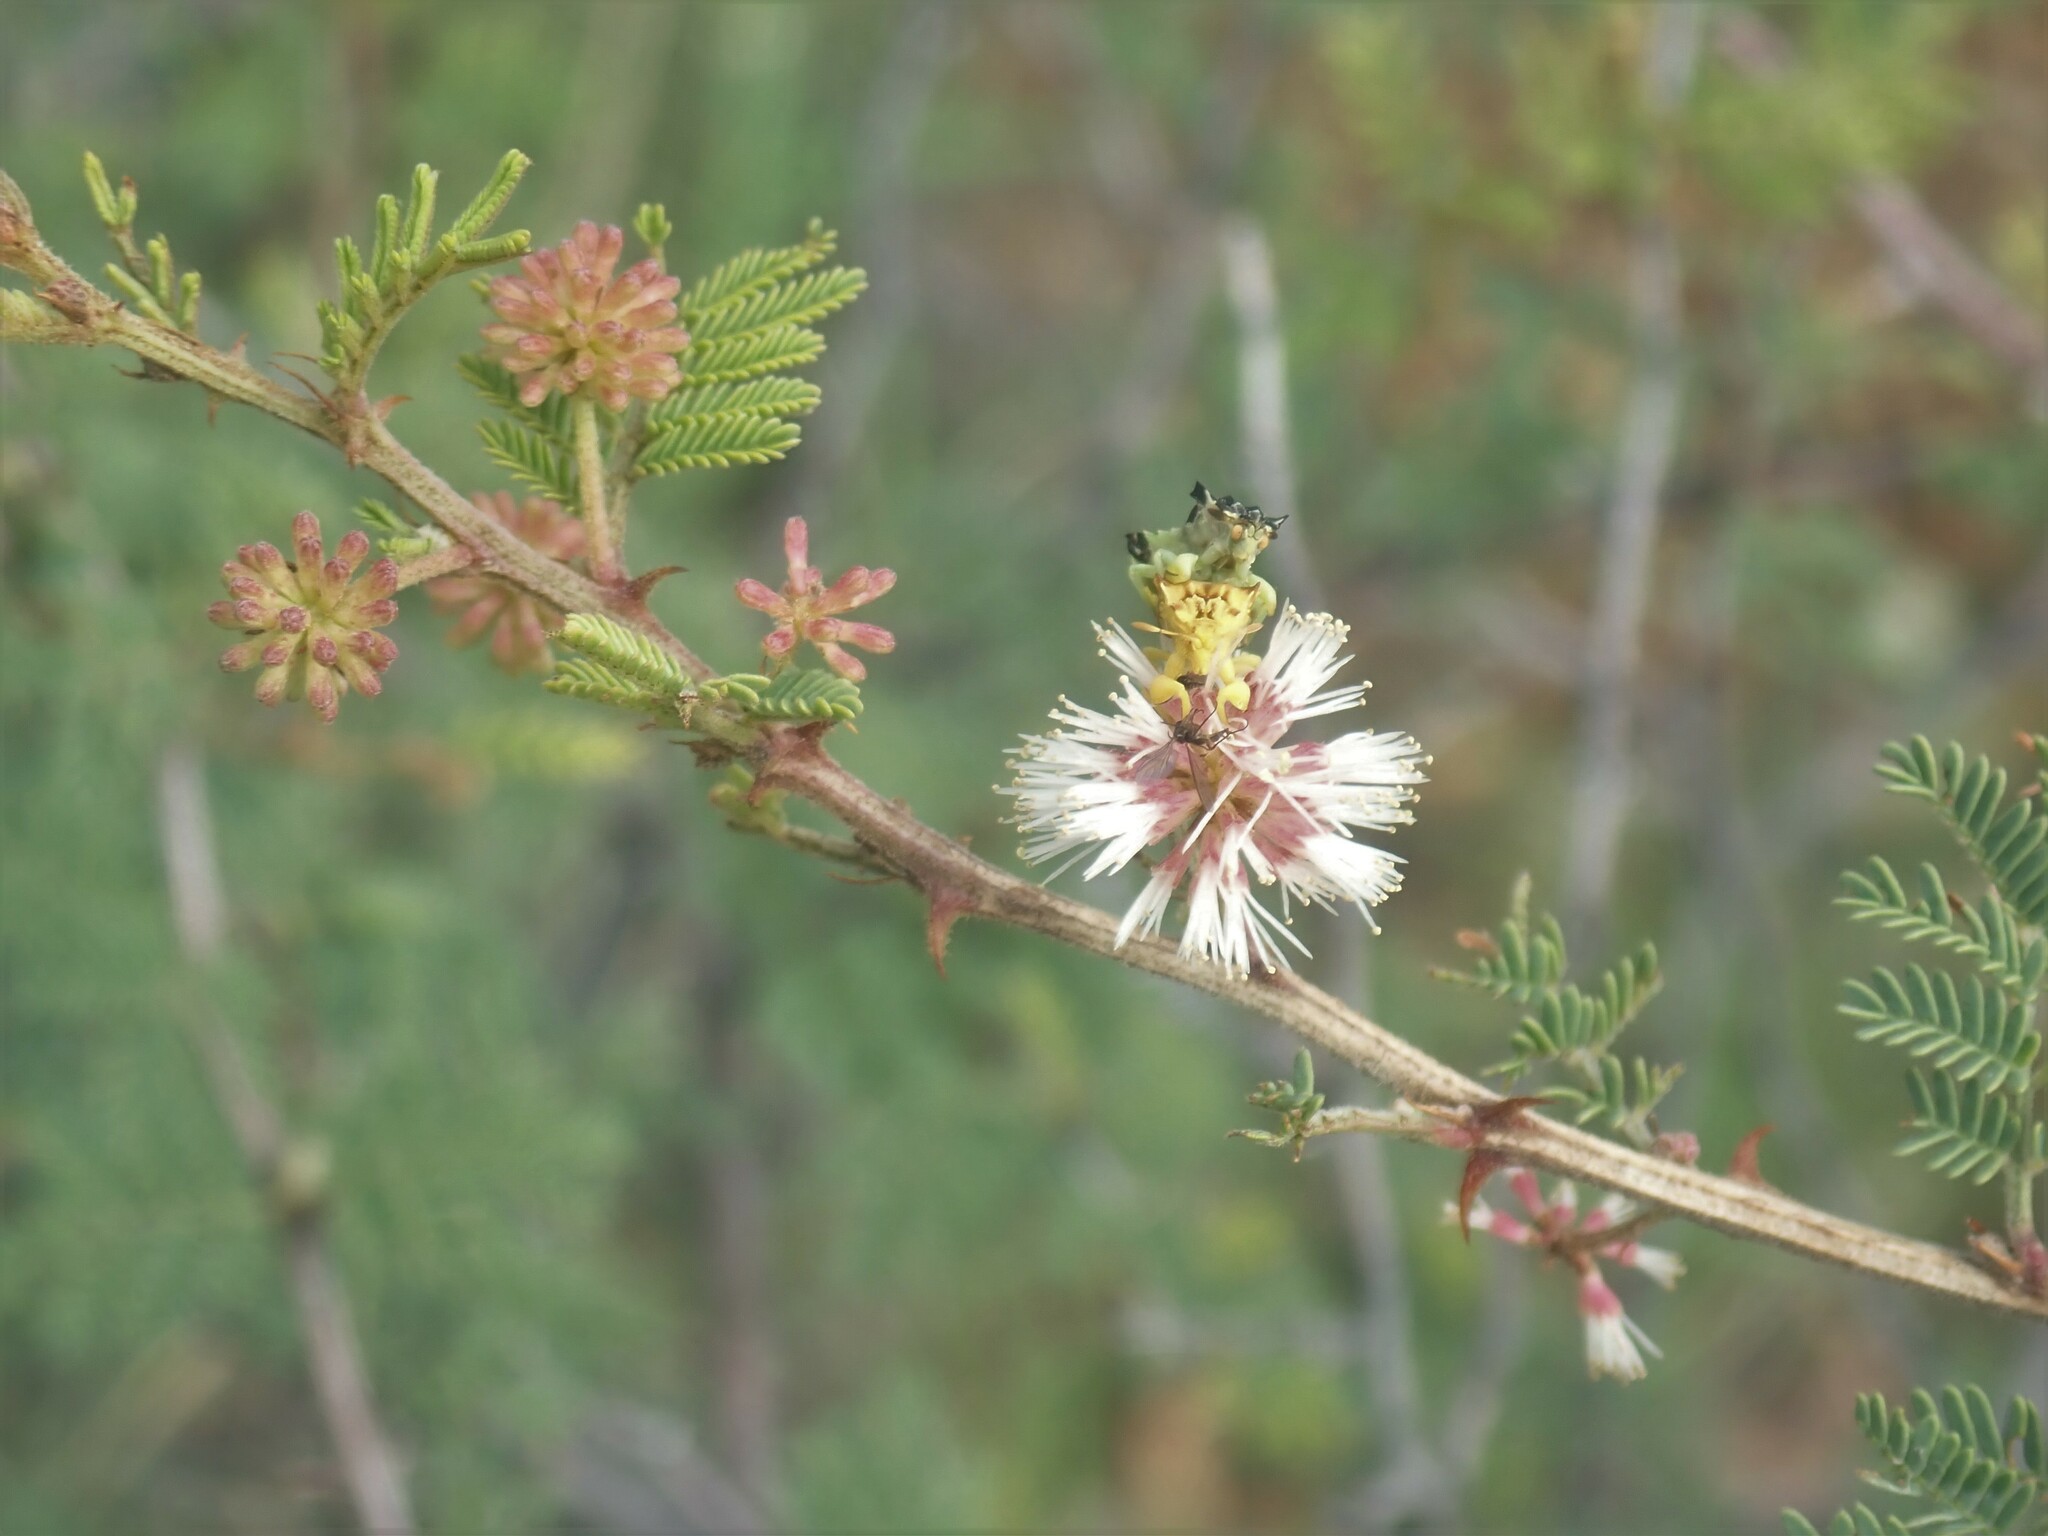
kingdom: Plantae
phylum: Tracheophyta
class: Magnoliopsida
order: Fabales
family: Fabaceae
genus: Mimosa
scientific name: Mimosa aculeaticarpa
